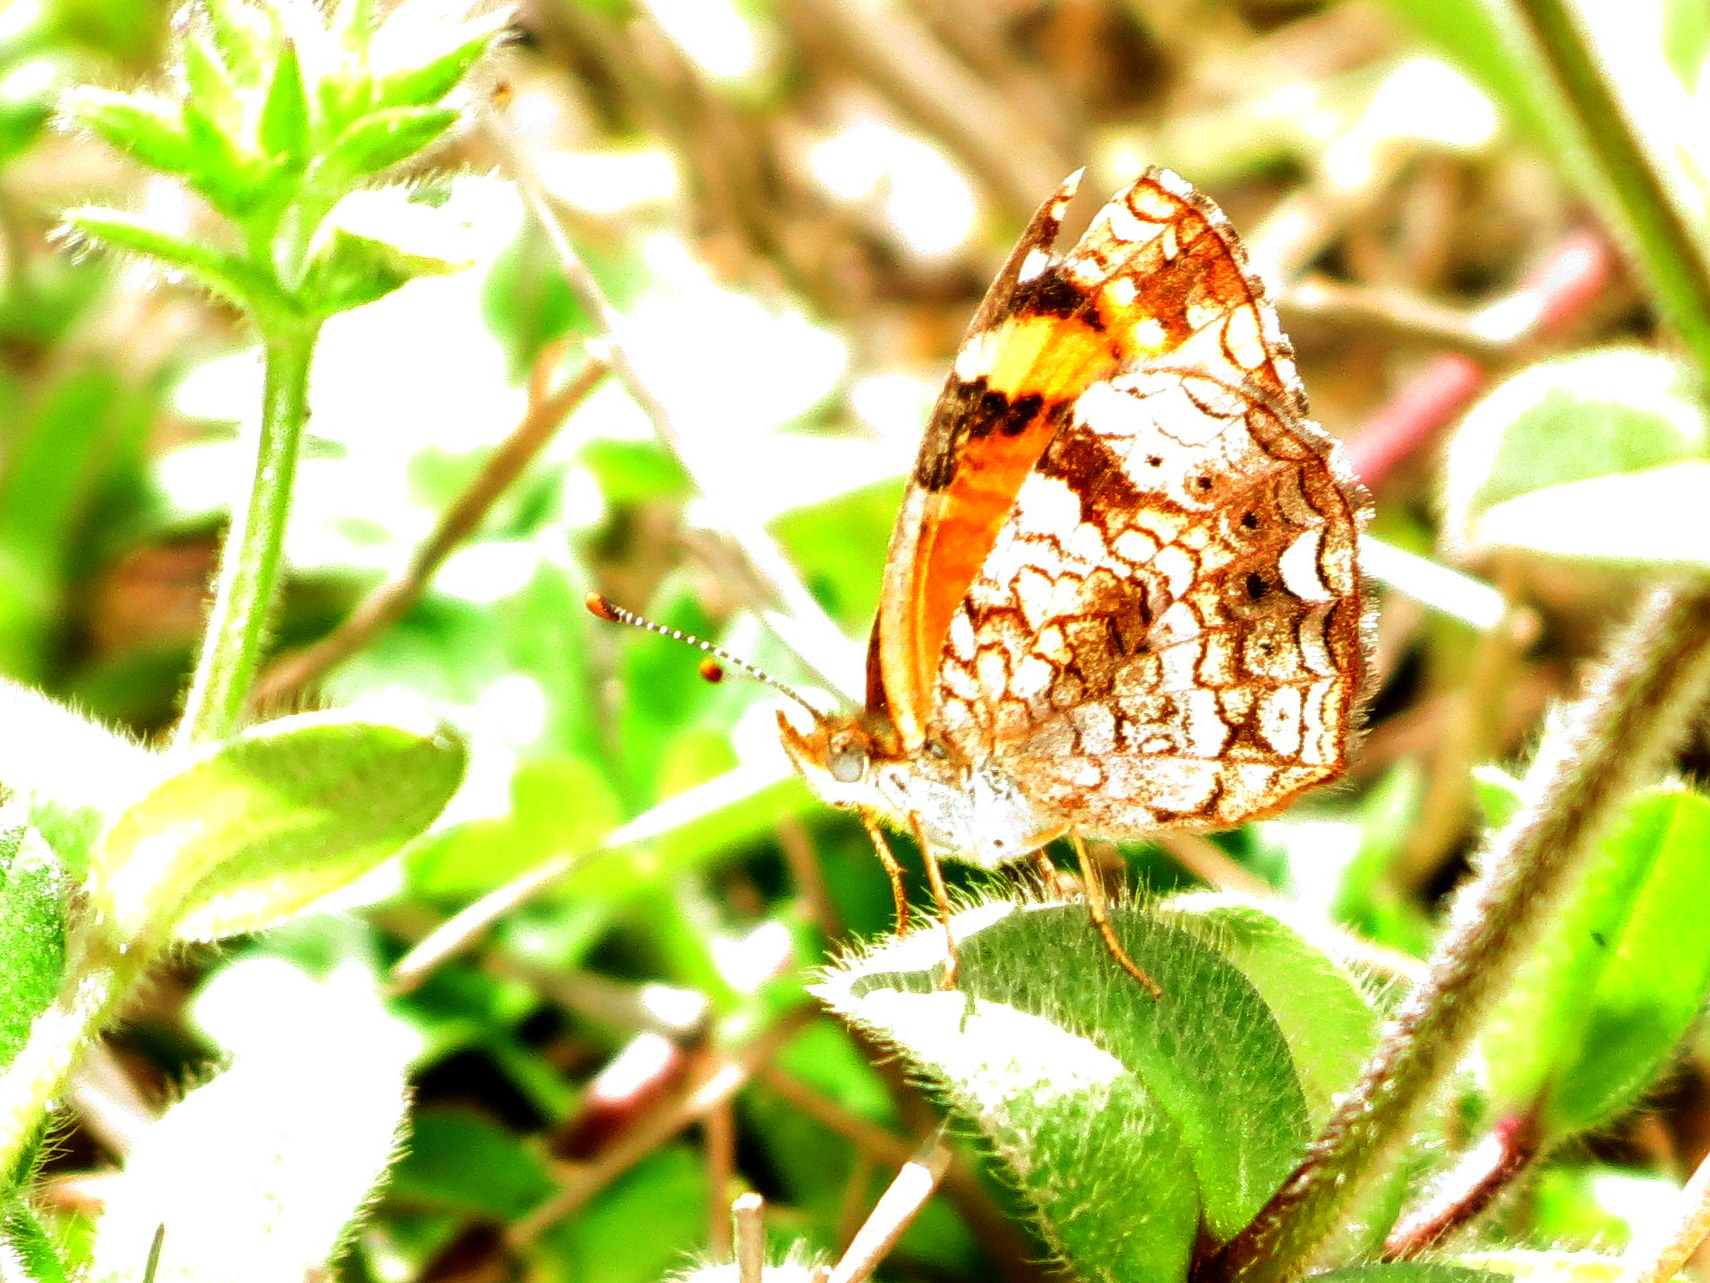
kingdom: Animalia
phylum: Arthropoda
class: Insecta
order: Lepidoptera
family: Nymphalidae
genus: Phyciodes
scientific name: Phyciodes tharos
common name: Pearl crescent
